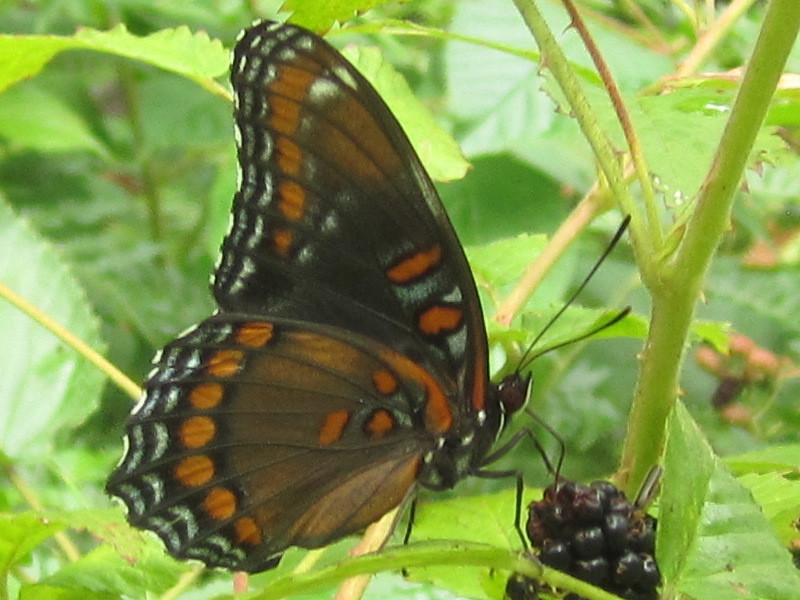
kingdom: Animalia
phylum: Arthropoda
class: Insecta
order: Lepidoptera
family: Nymphalidae
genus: Limenitis
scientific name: Limenitis astyanax
